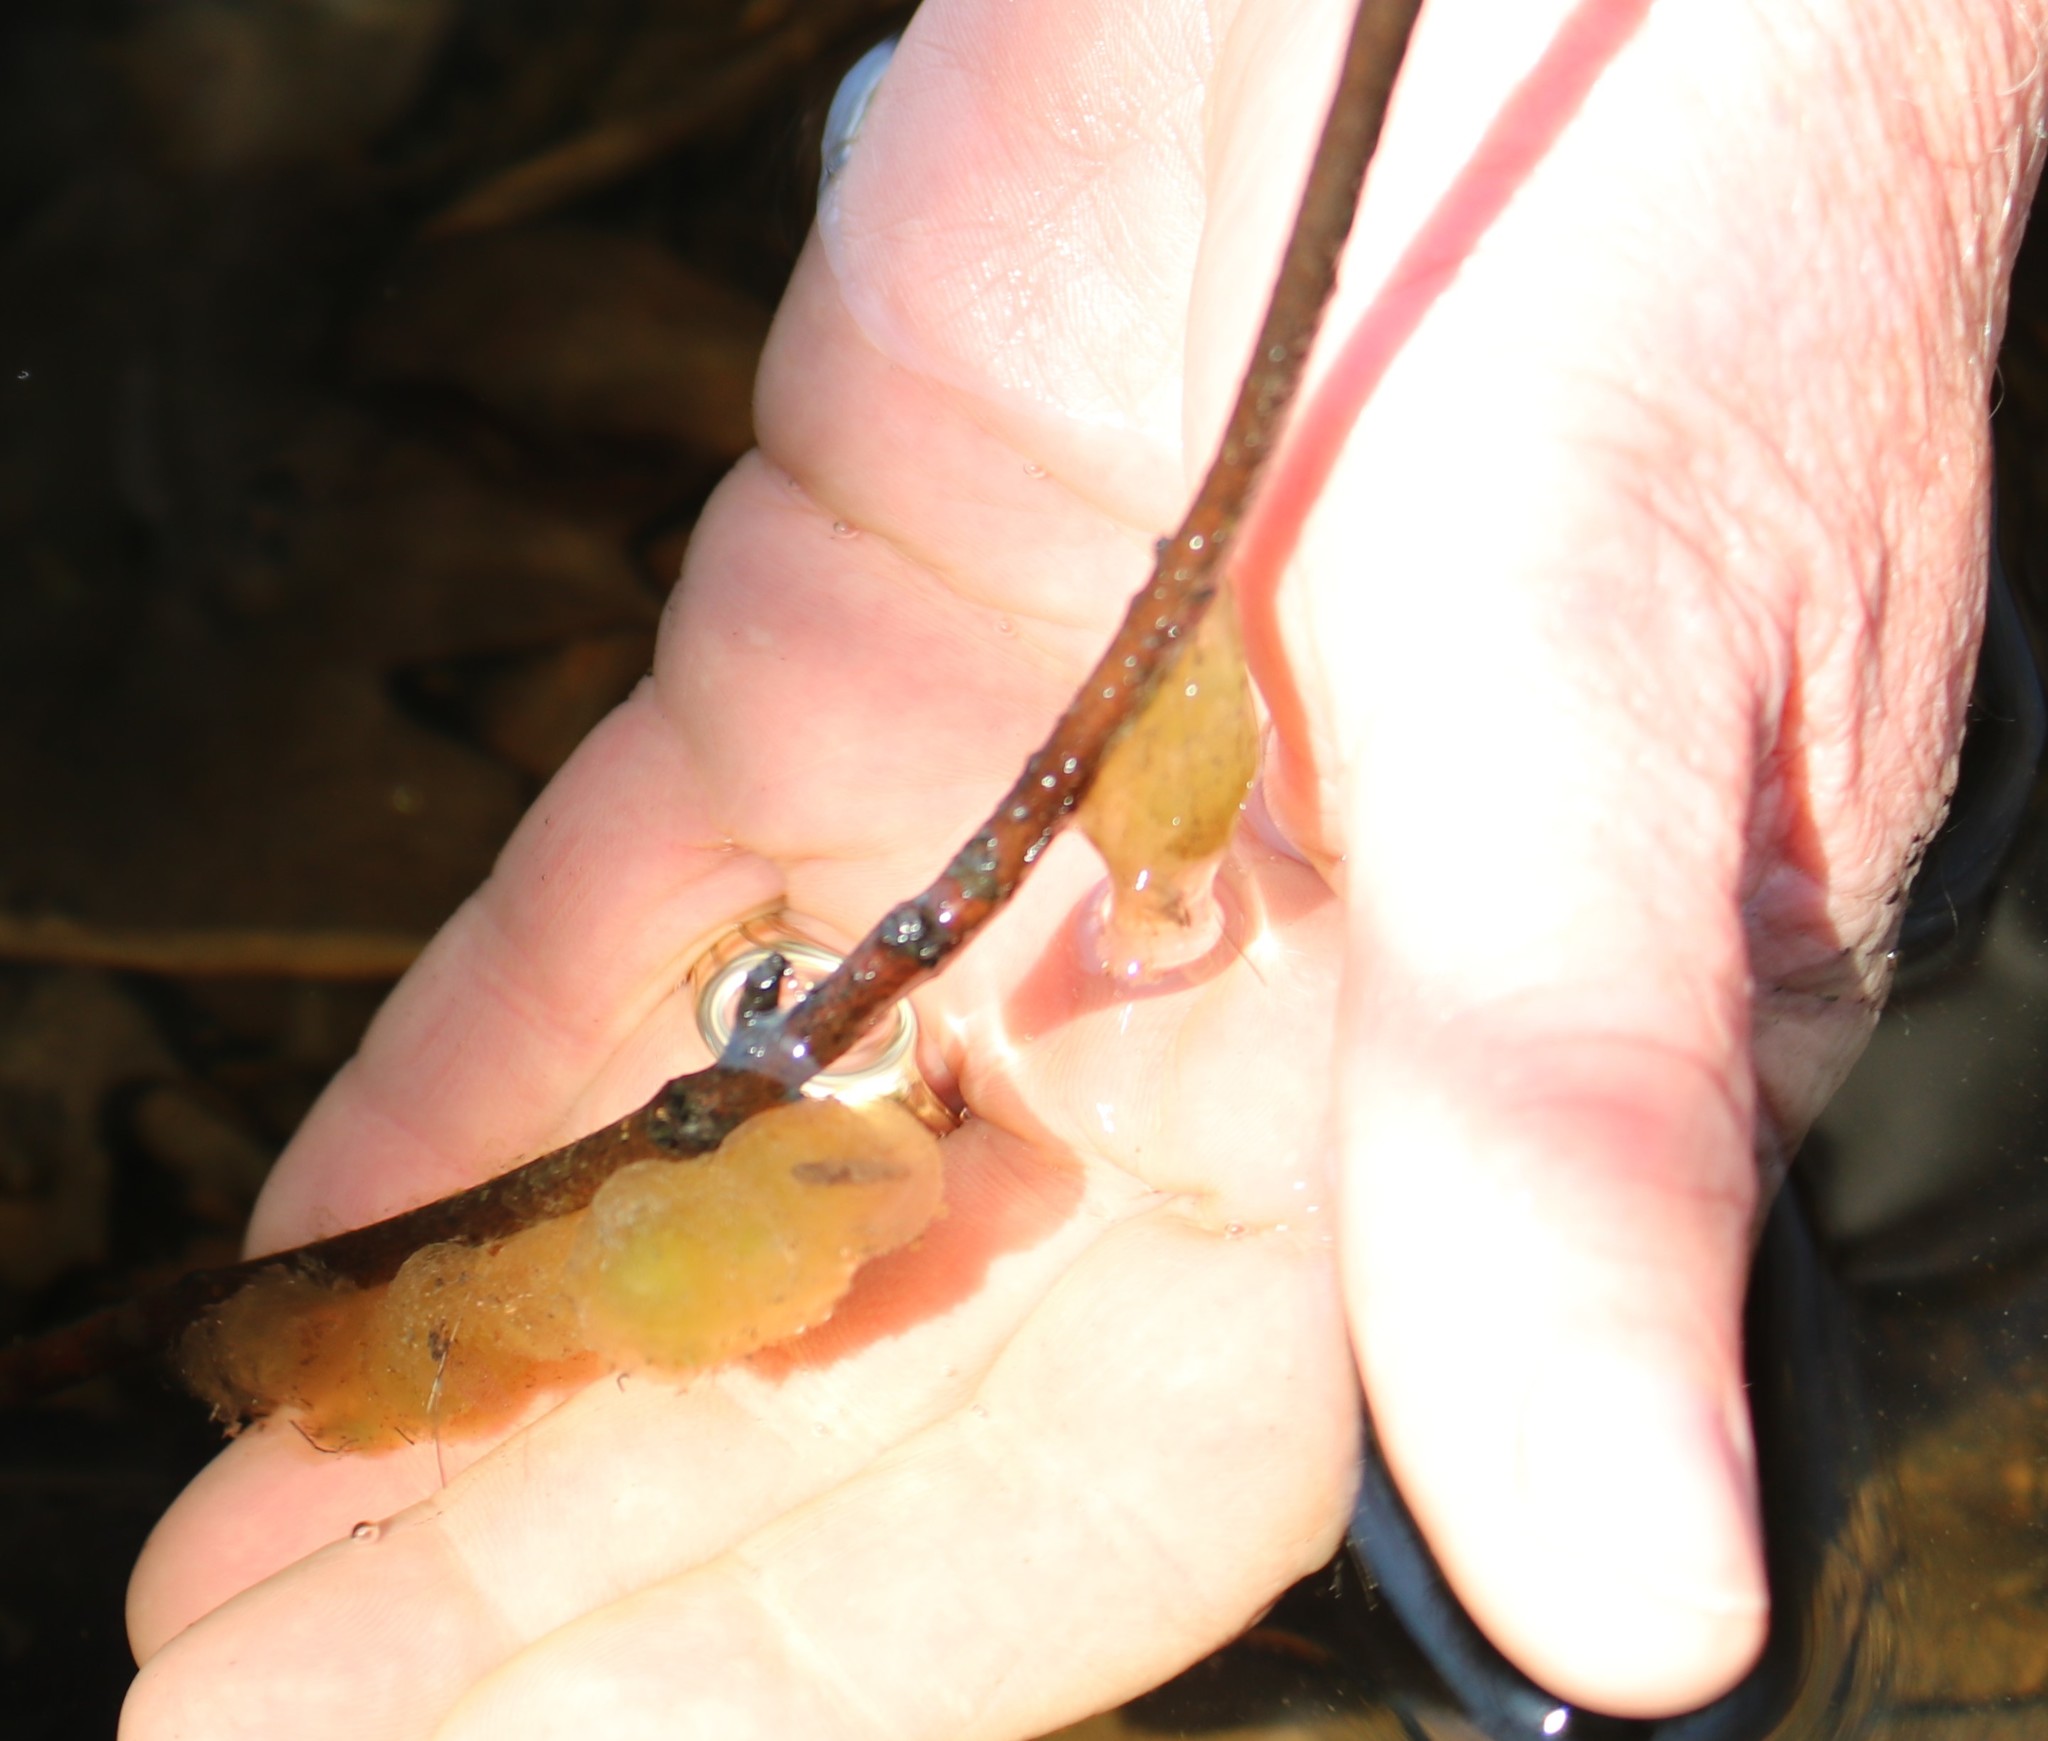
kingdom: Animalia
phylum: Chordata
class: Amphibia
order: Caudata
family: Ambystomatidae
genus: Ambystoma
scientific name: Ambystoma laterale
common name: Blue-spotted salamander
